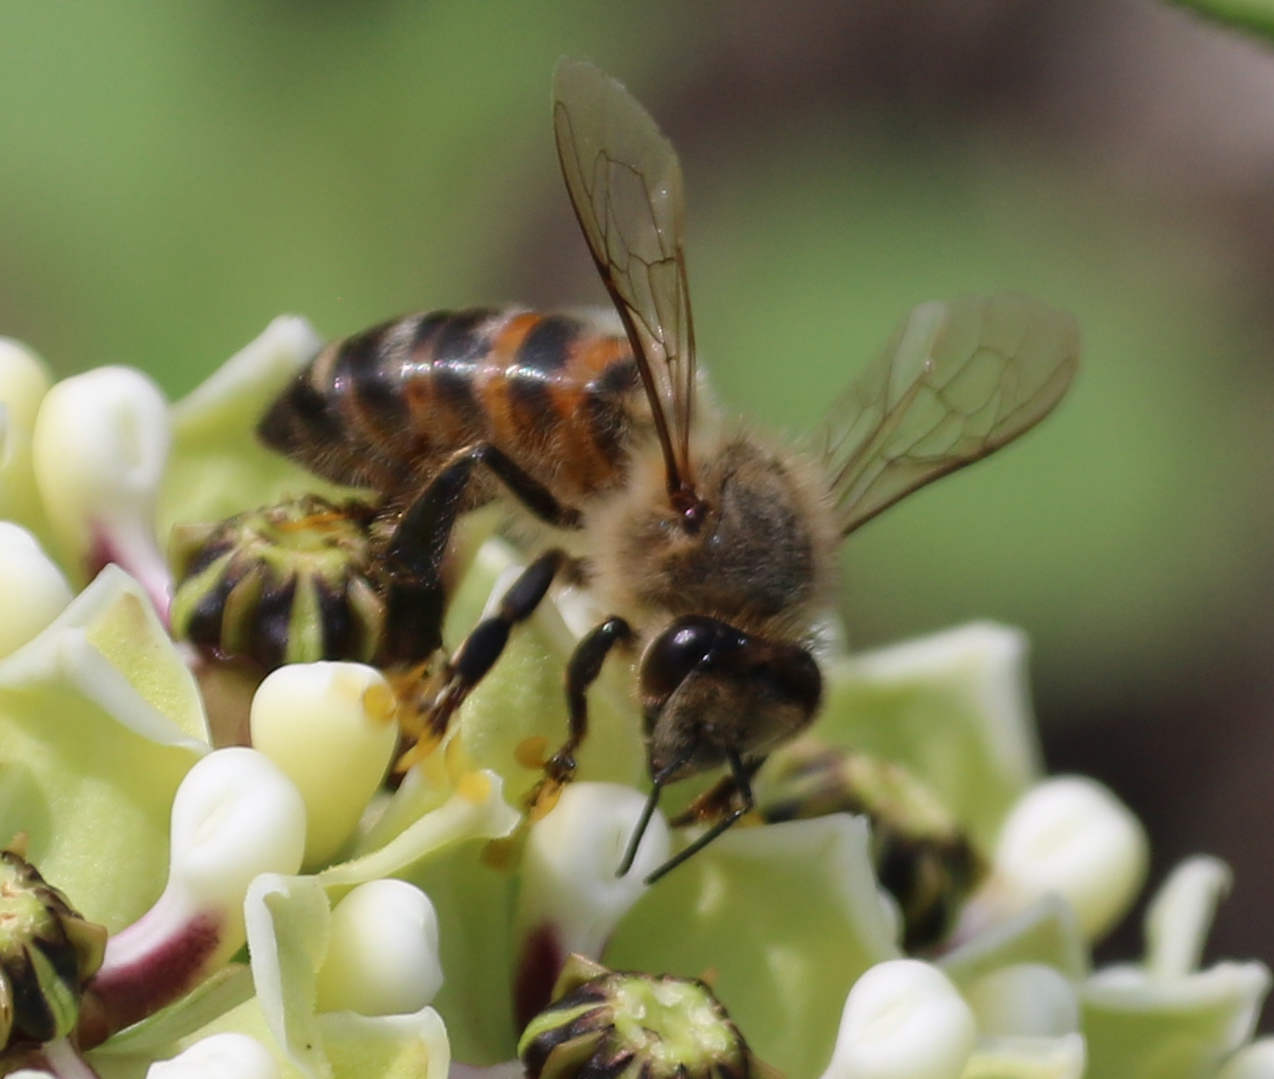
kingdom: Animalia
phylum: Arthropoda
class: Insecta
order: Hymenoptera
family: Apidae
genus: Apis
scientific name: Apis mellifera
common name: Honey bee
